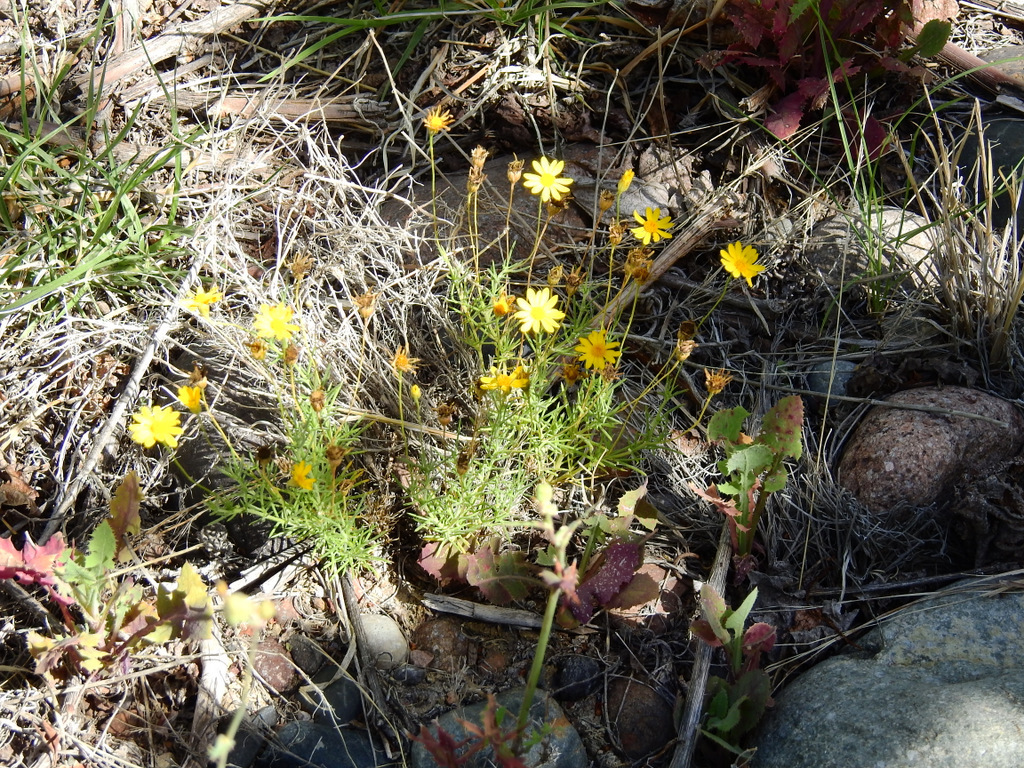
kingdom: Plantae
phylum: Tracheophyta
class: Magnoliopsida
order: Asterales
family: Asteraceae
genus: Thymophylla
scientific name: Thymophylla pentachaeta
